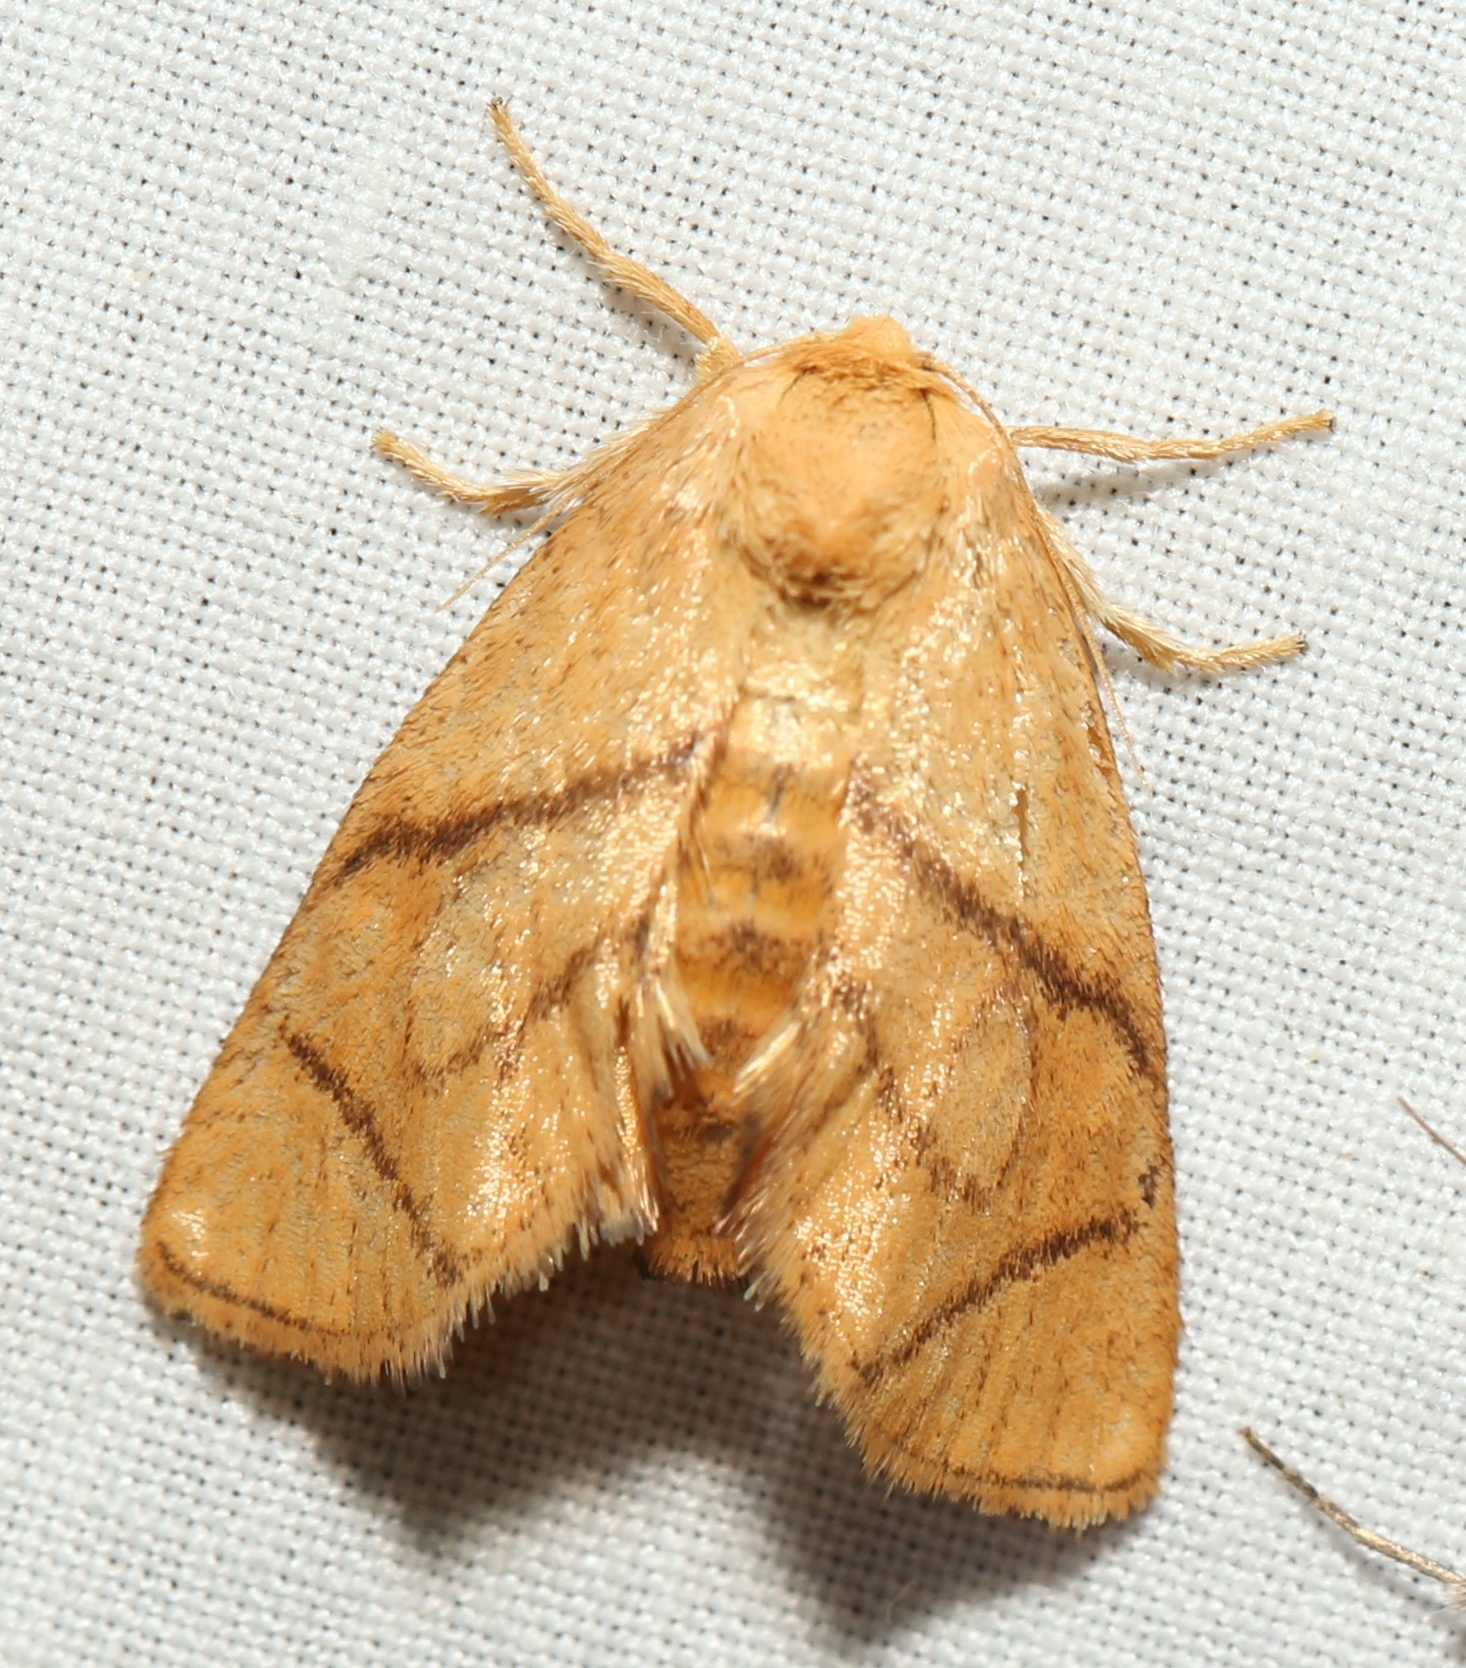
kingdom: Animalia
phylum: Arthropoda
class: Insecta
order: Lepidoptera
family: Limacodidae
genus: Apoda
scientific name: Apoda y-inversa
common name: Yellow-collared slug moth
